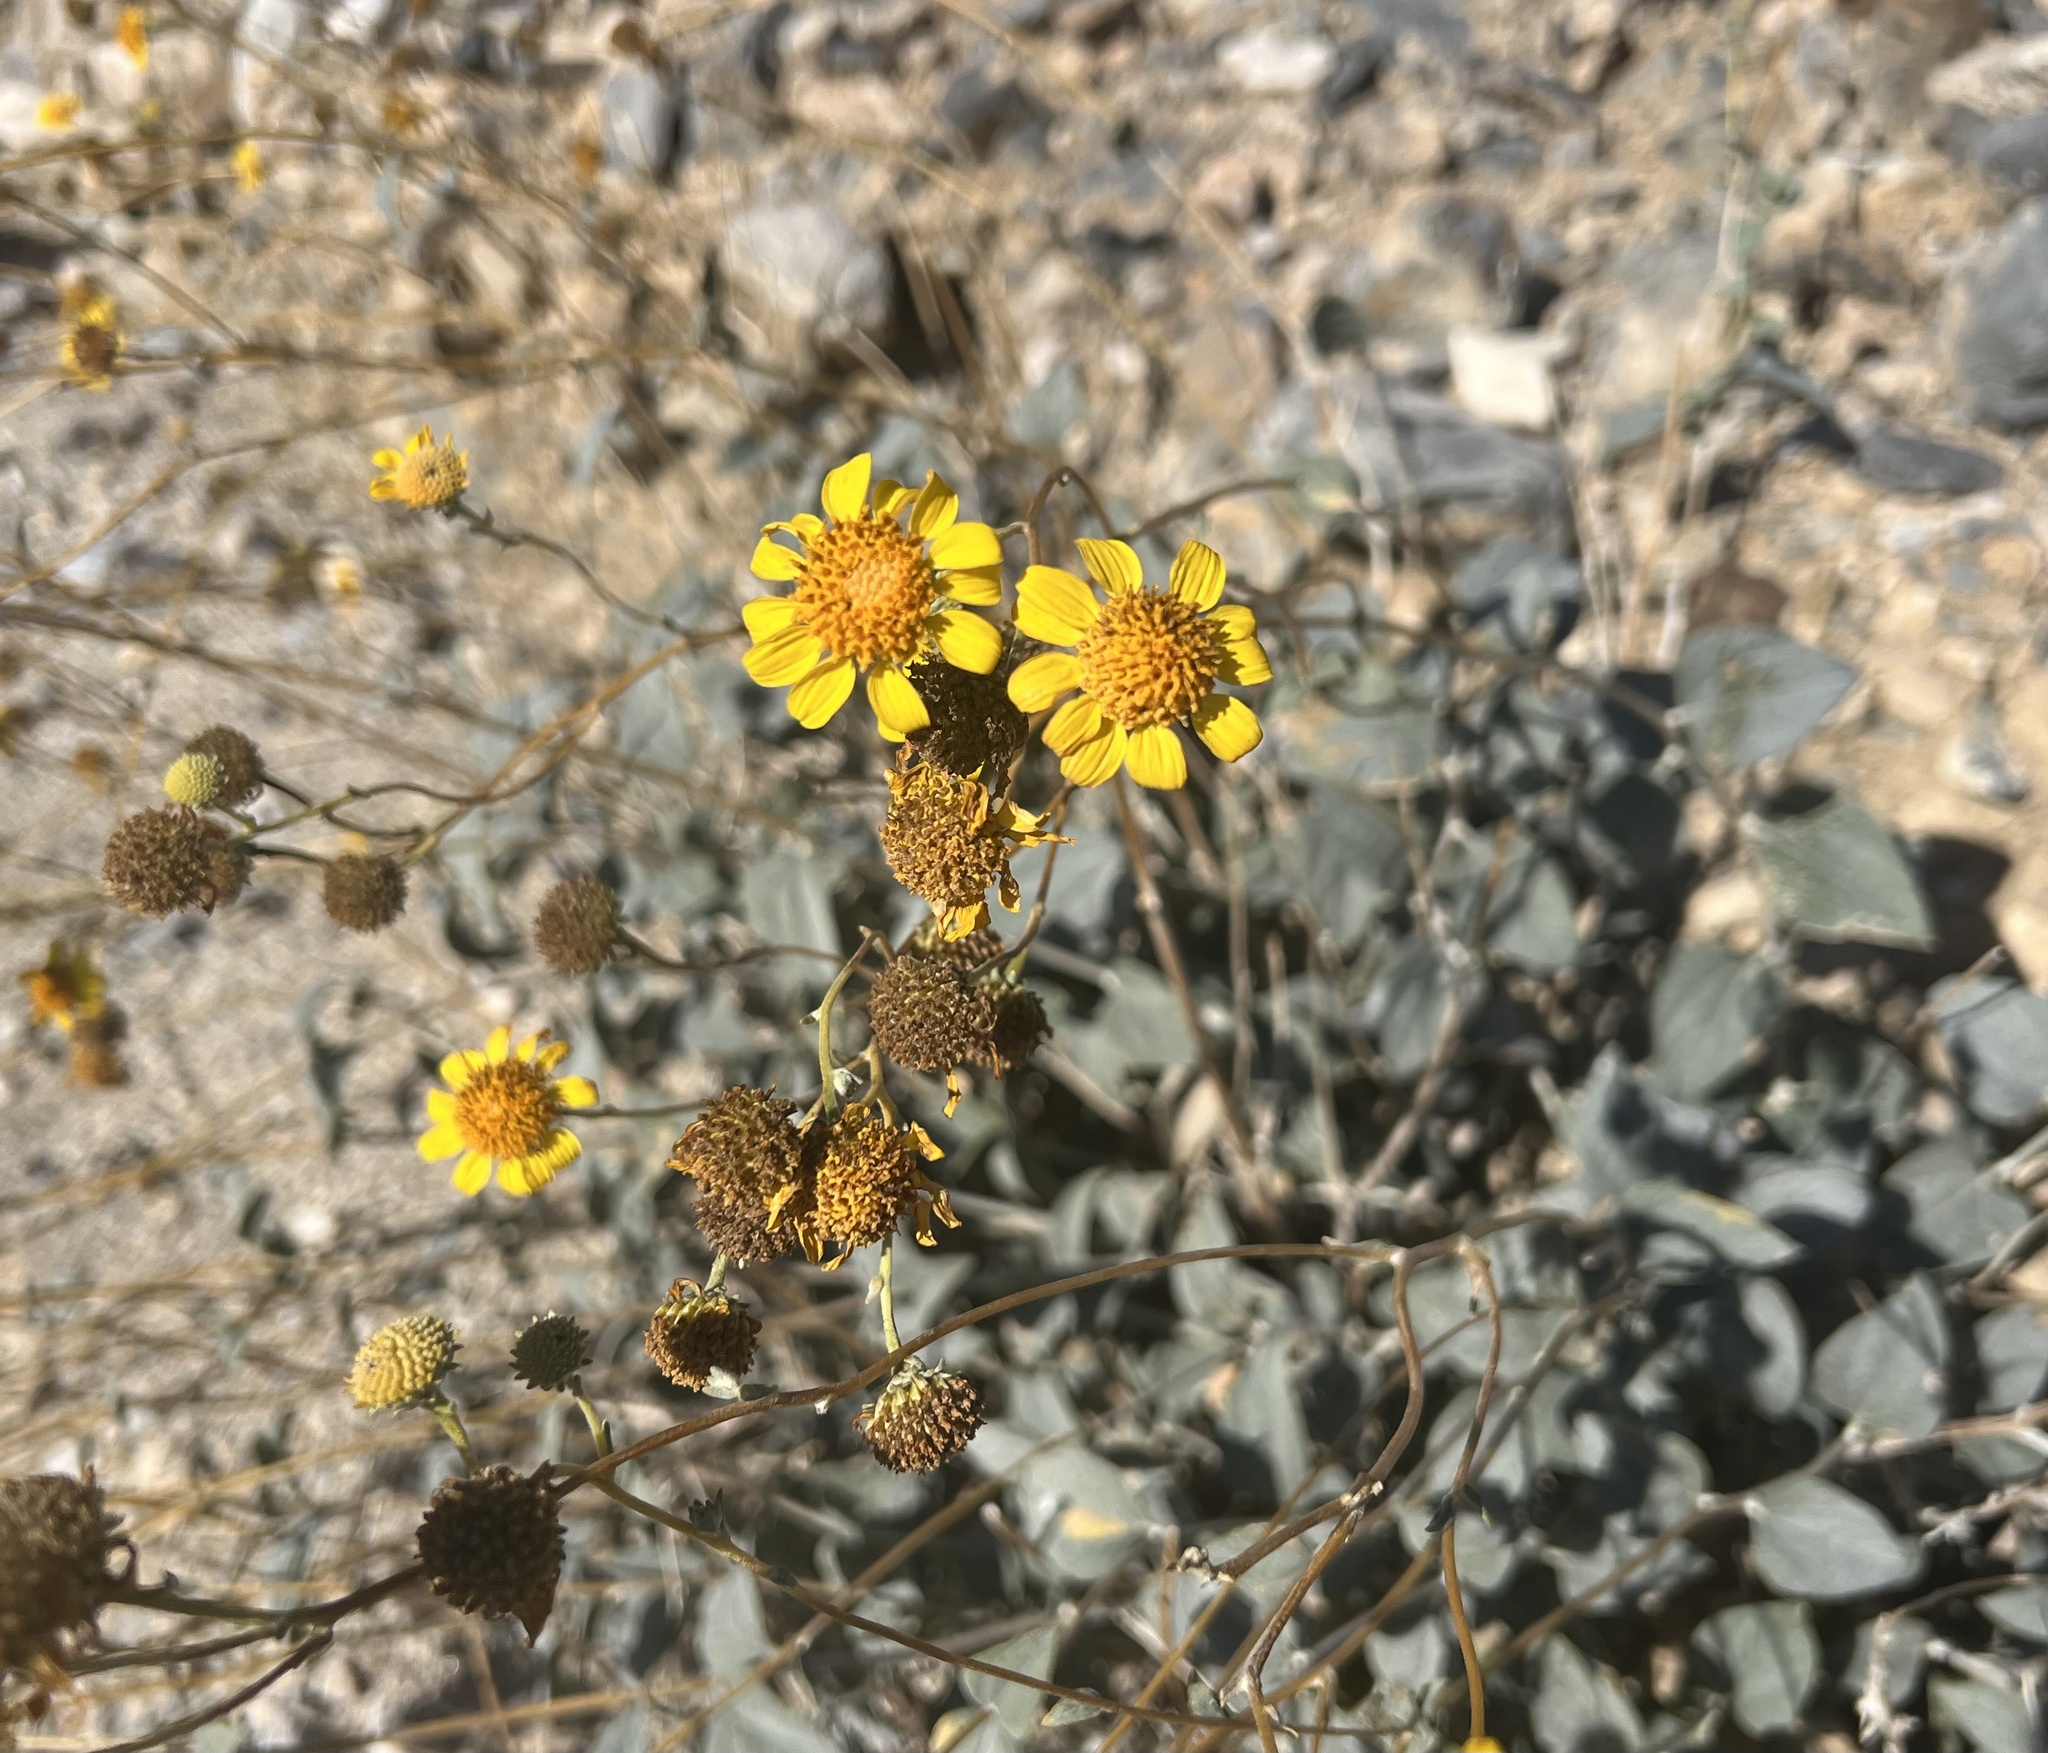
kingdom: Plantae
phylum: Tracheophyta
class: Magnoliopsida
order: Asterales
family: Asteraceae
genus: Bahiopsis
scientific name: Bahiopsis reticulata
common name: Death valley goldeneye
